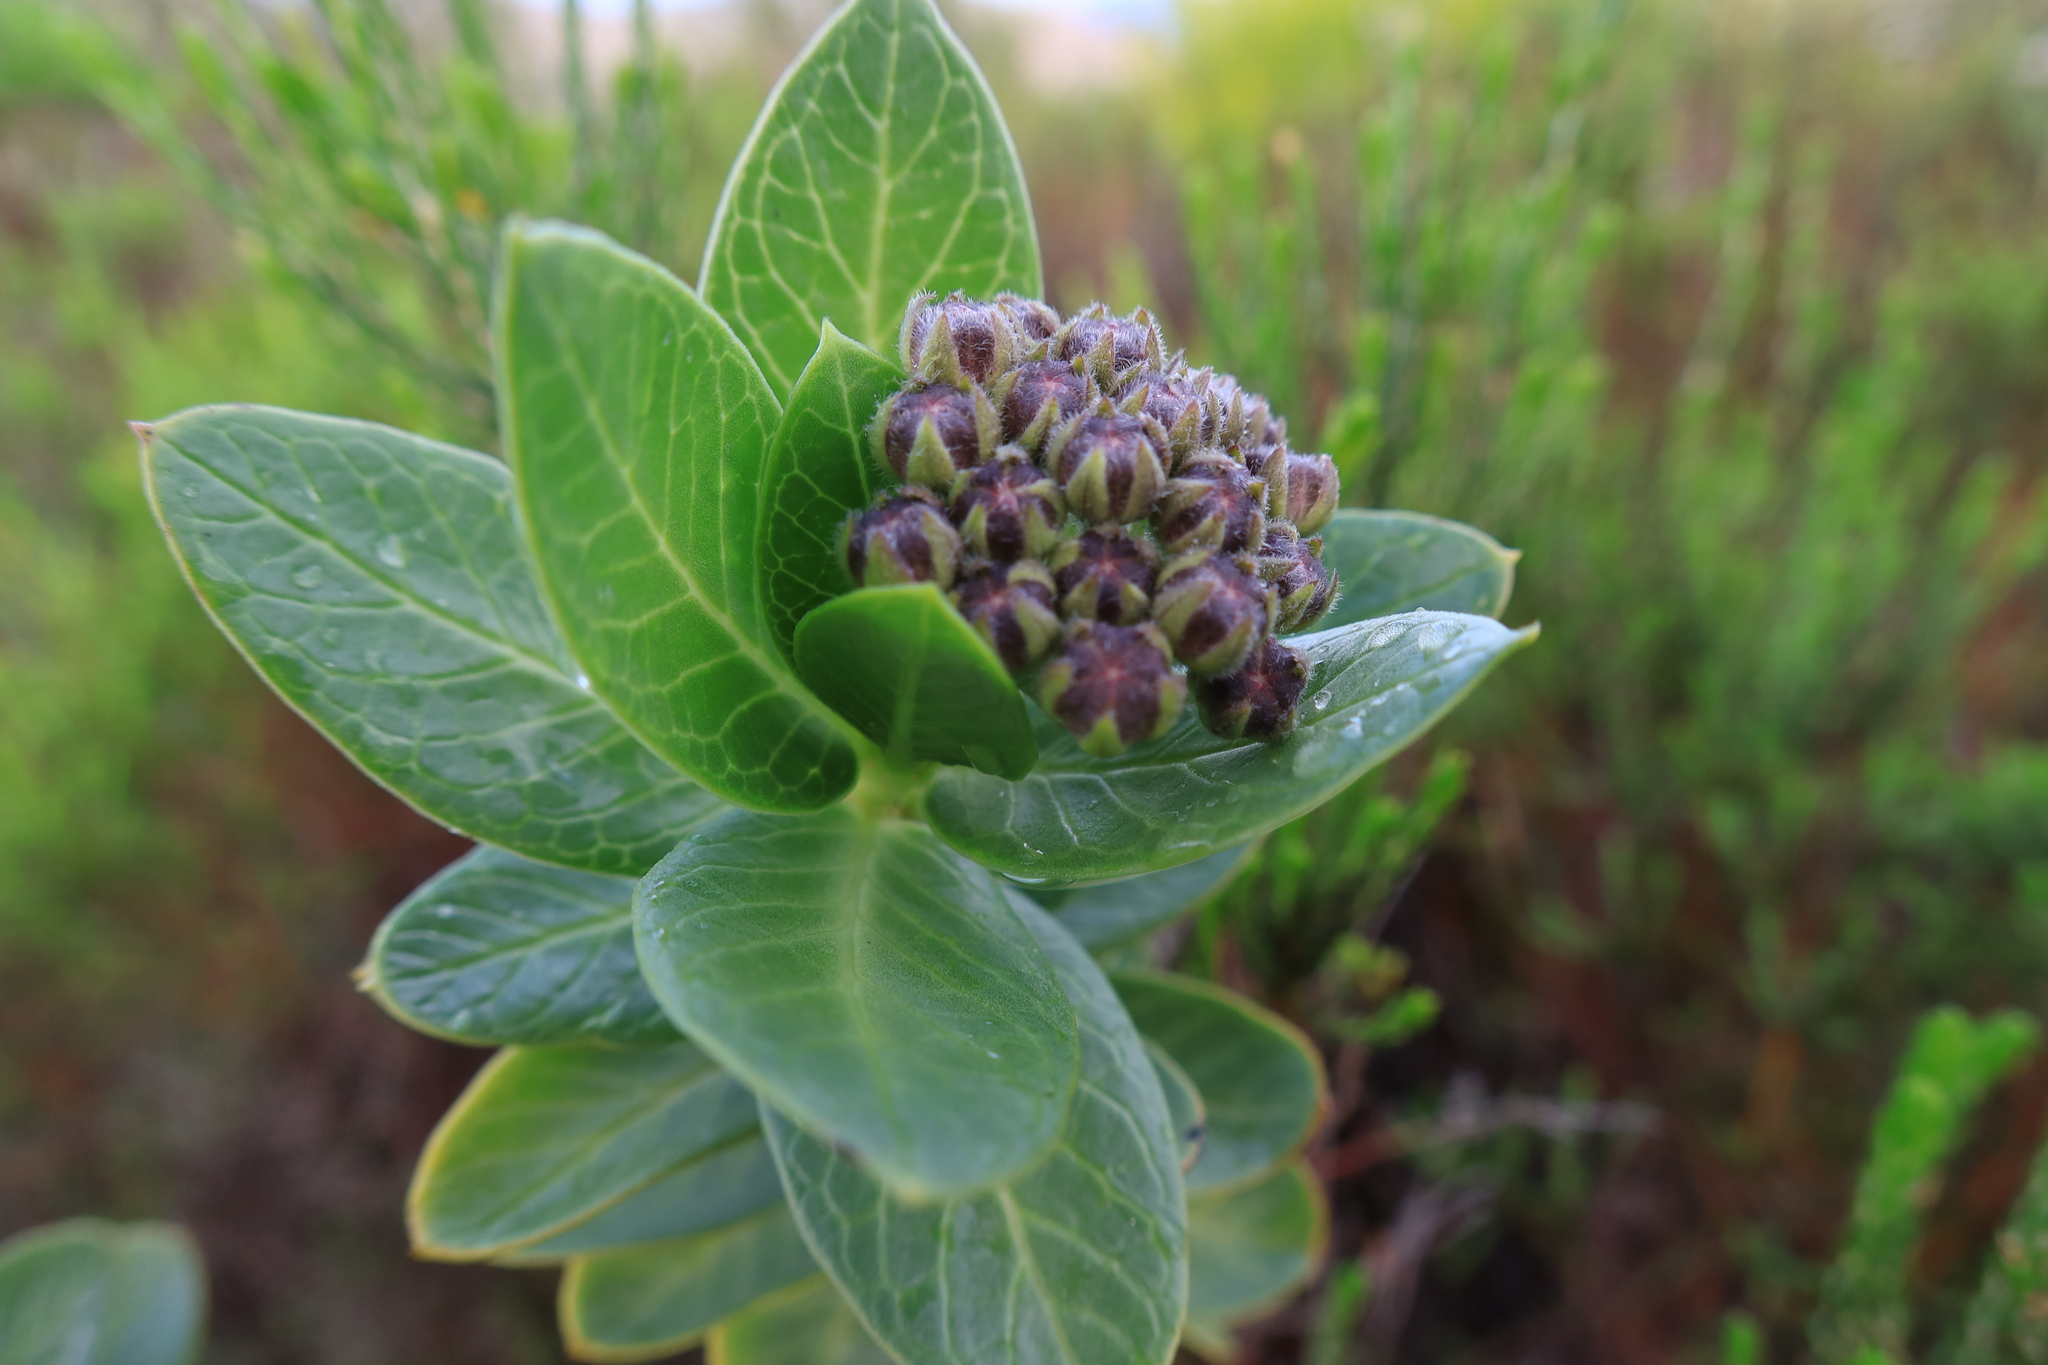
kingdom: Plantae
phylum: Tracheophyta
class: Magnoliopsida
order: Gentianales
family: Apocynaceae
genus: Gomphocarpus
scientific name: Gomphocarpus cancellatus
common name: Wild cotton
